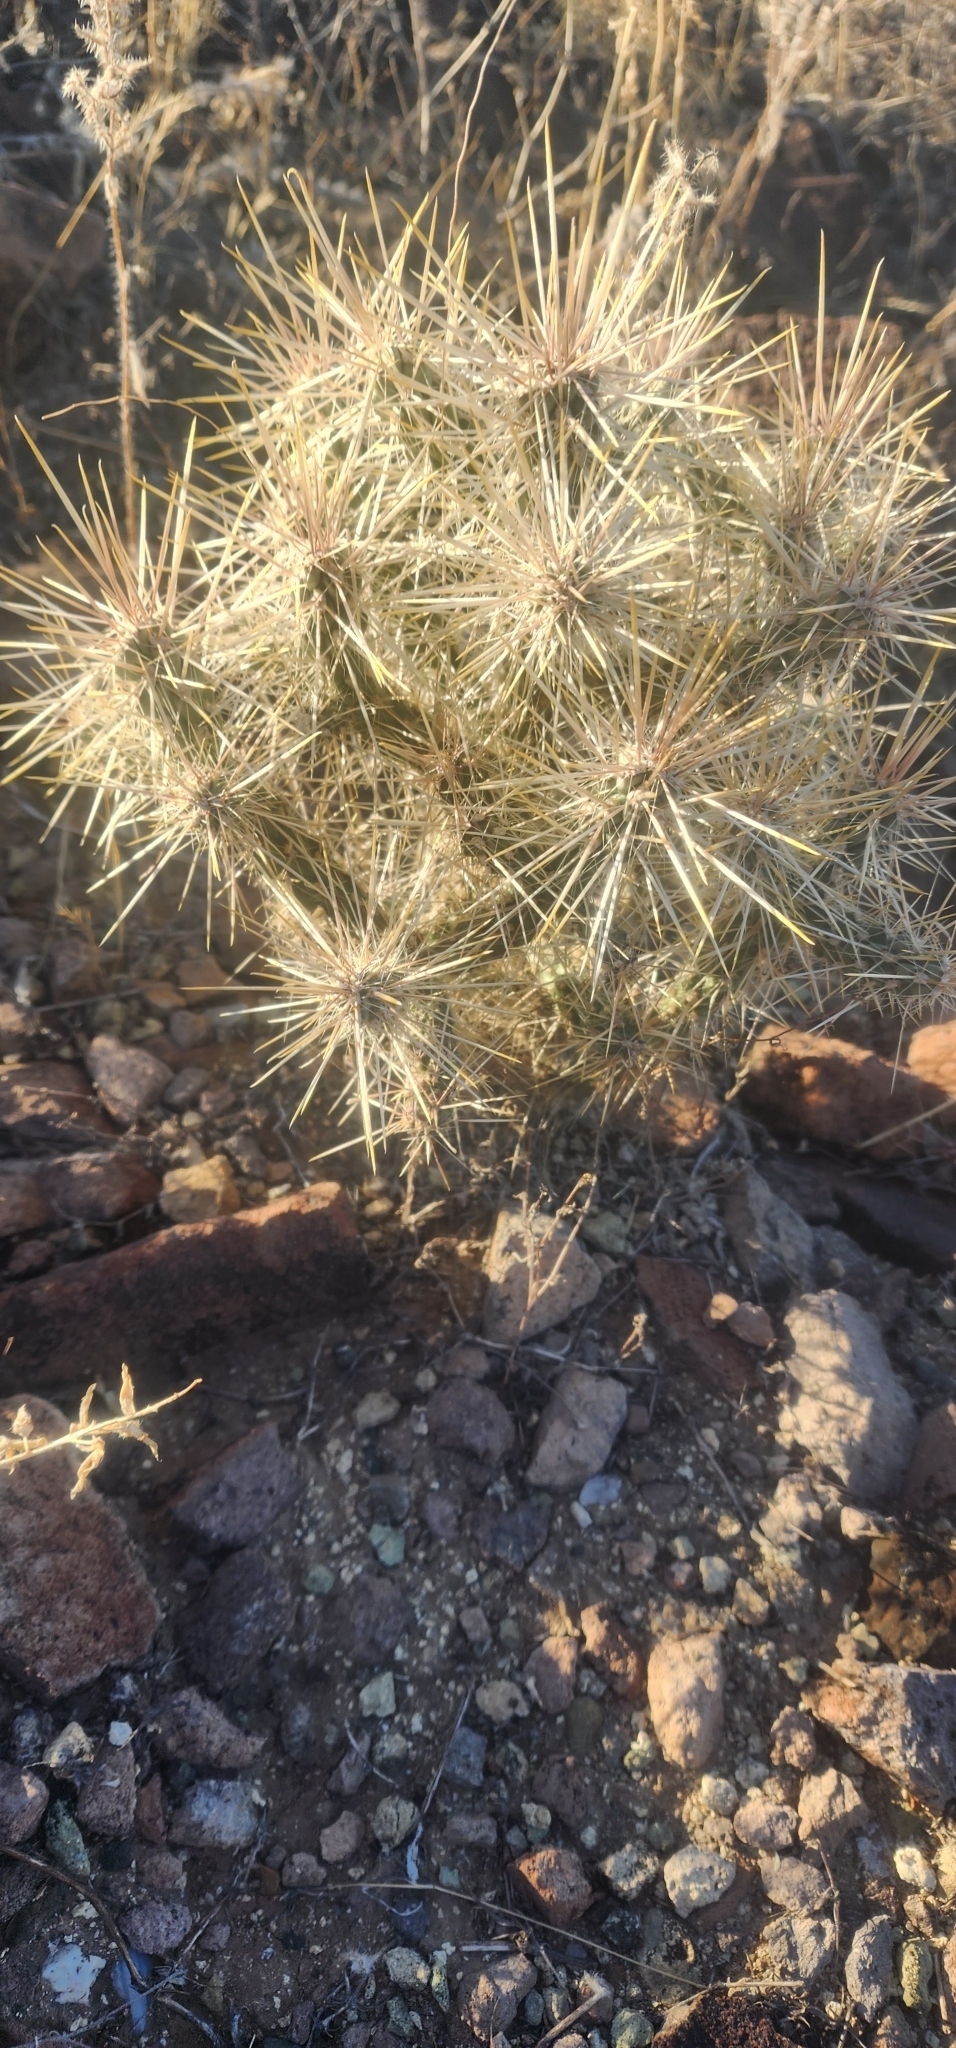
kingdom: Plantae
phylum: Tracheophyta
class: Magnoliopsida
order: Caryophyllales
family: Cactaceae
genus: Cylindropuntia
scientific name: Cylindropuntia fulgida
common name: Jumping cholla
